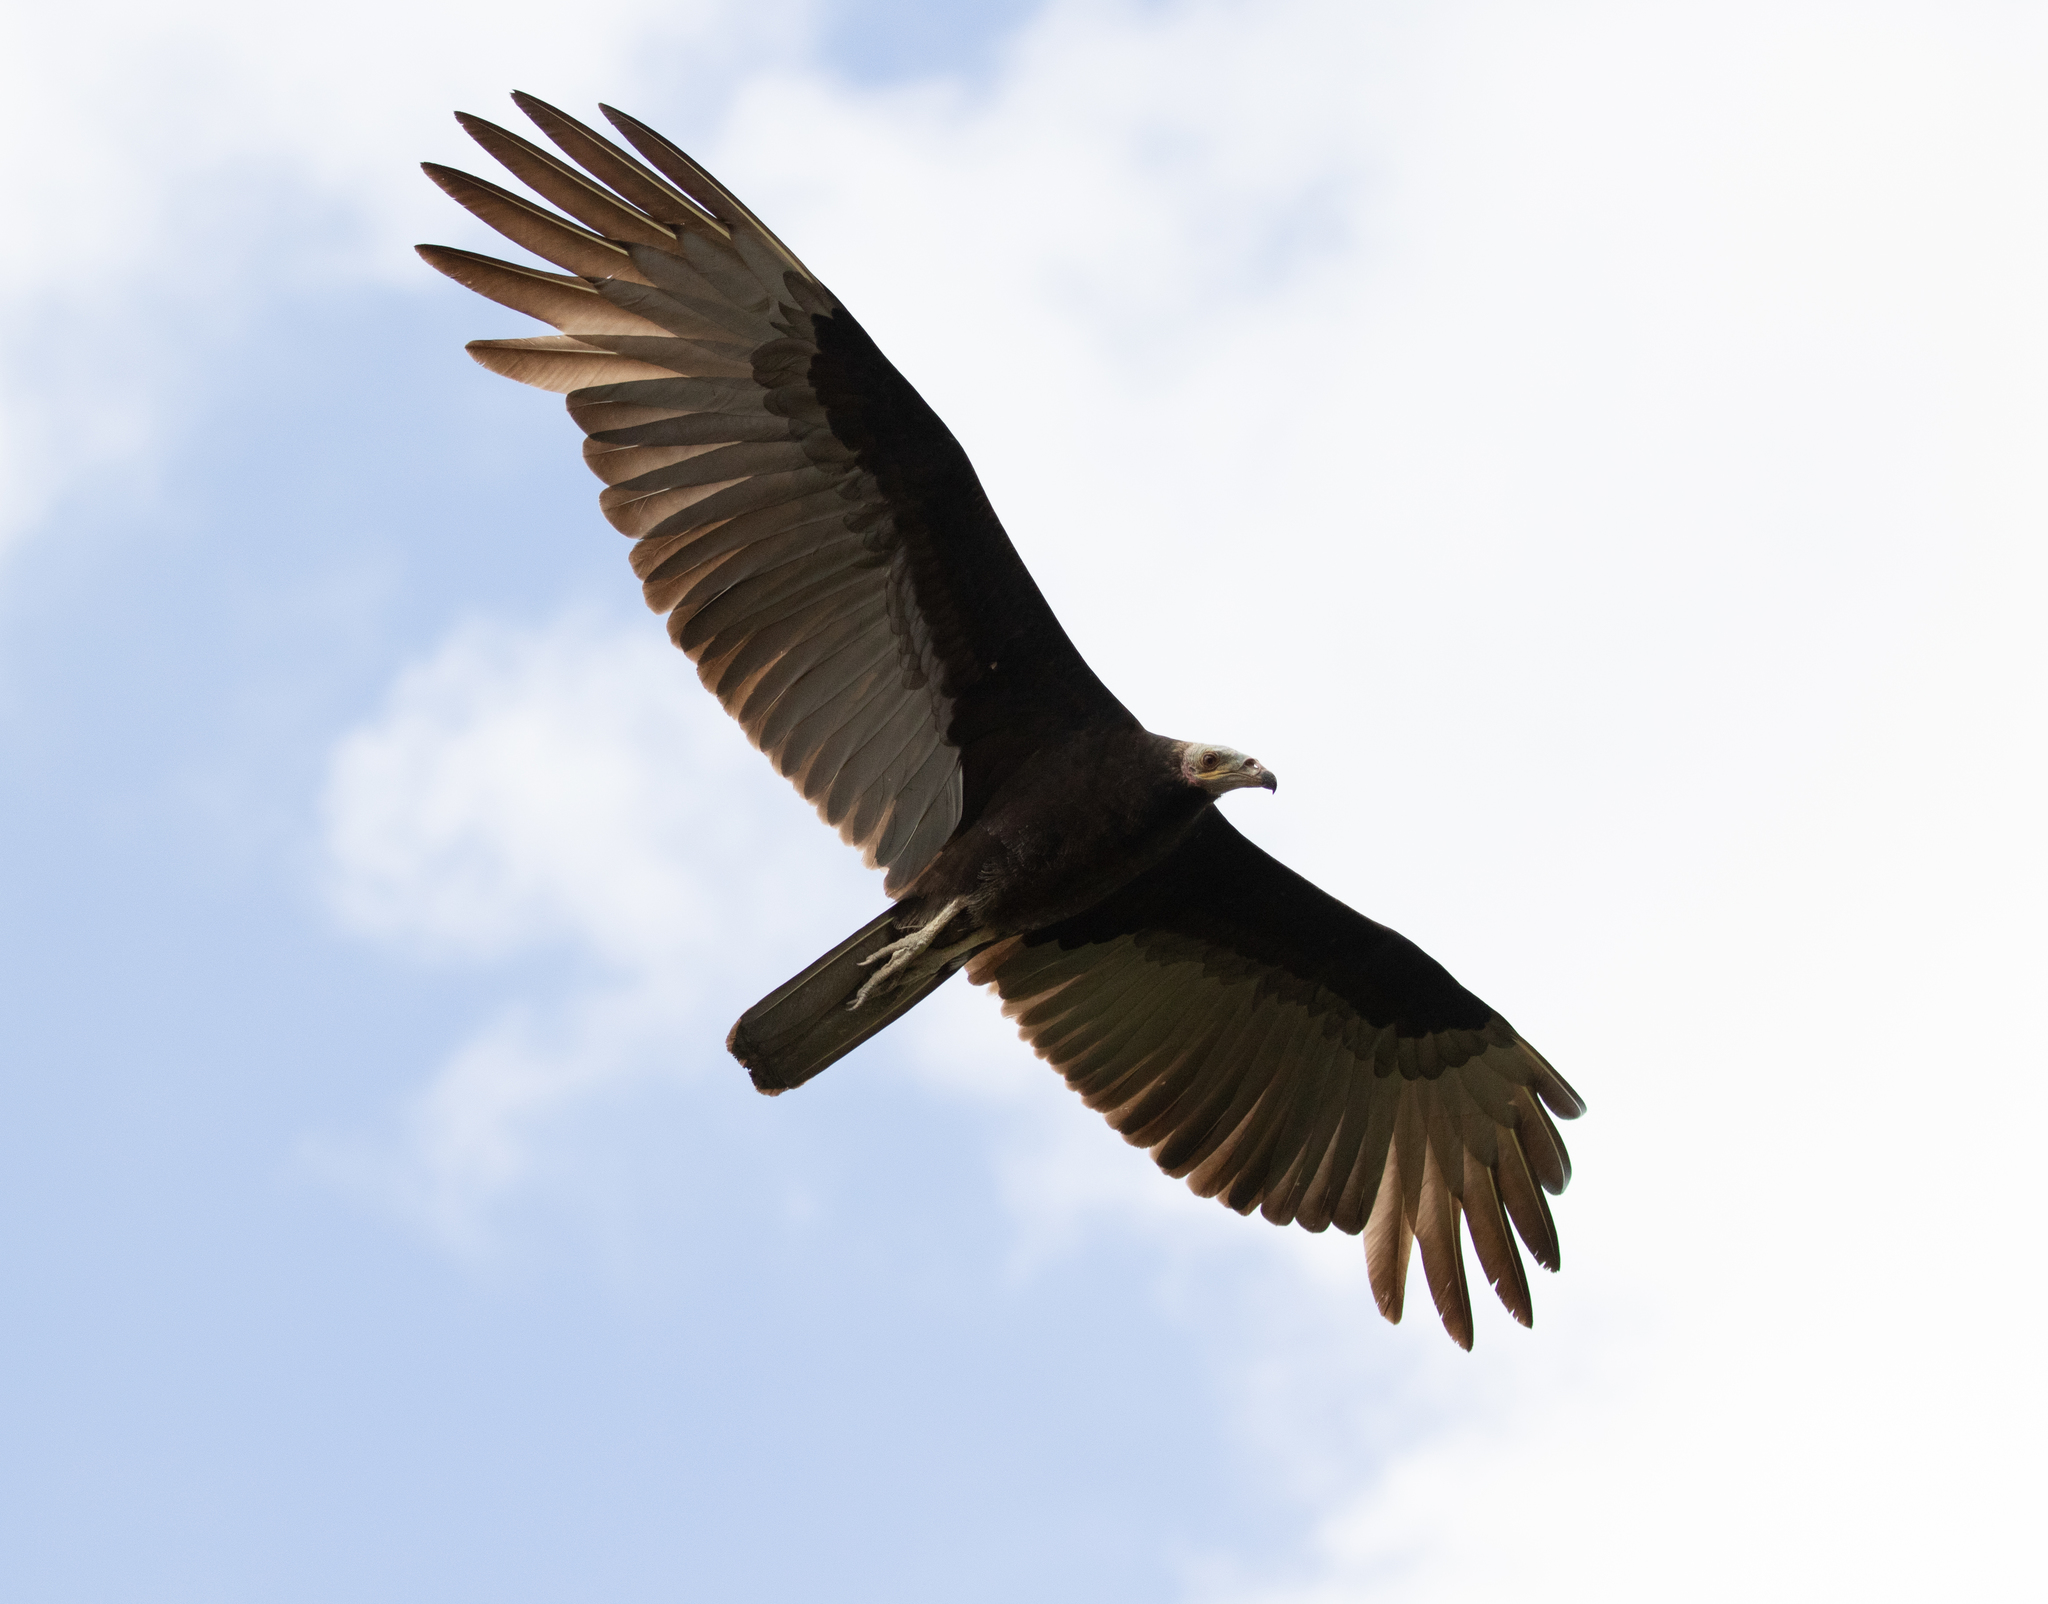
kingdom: Animalia
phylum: Chordata
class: Aves
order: Accipitriformes
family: Cathartidae
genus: Cathartes
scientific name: Cathartes burrovianus
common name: Lesser yellow-headed vulture
